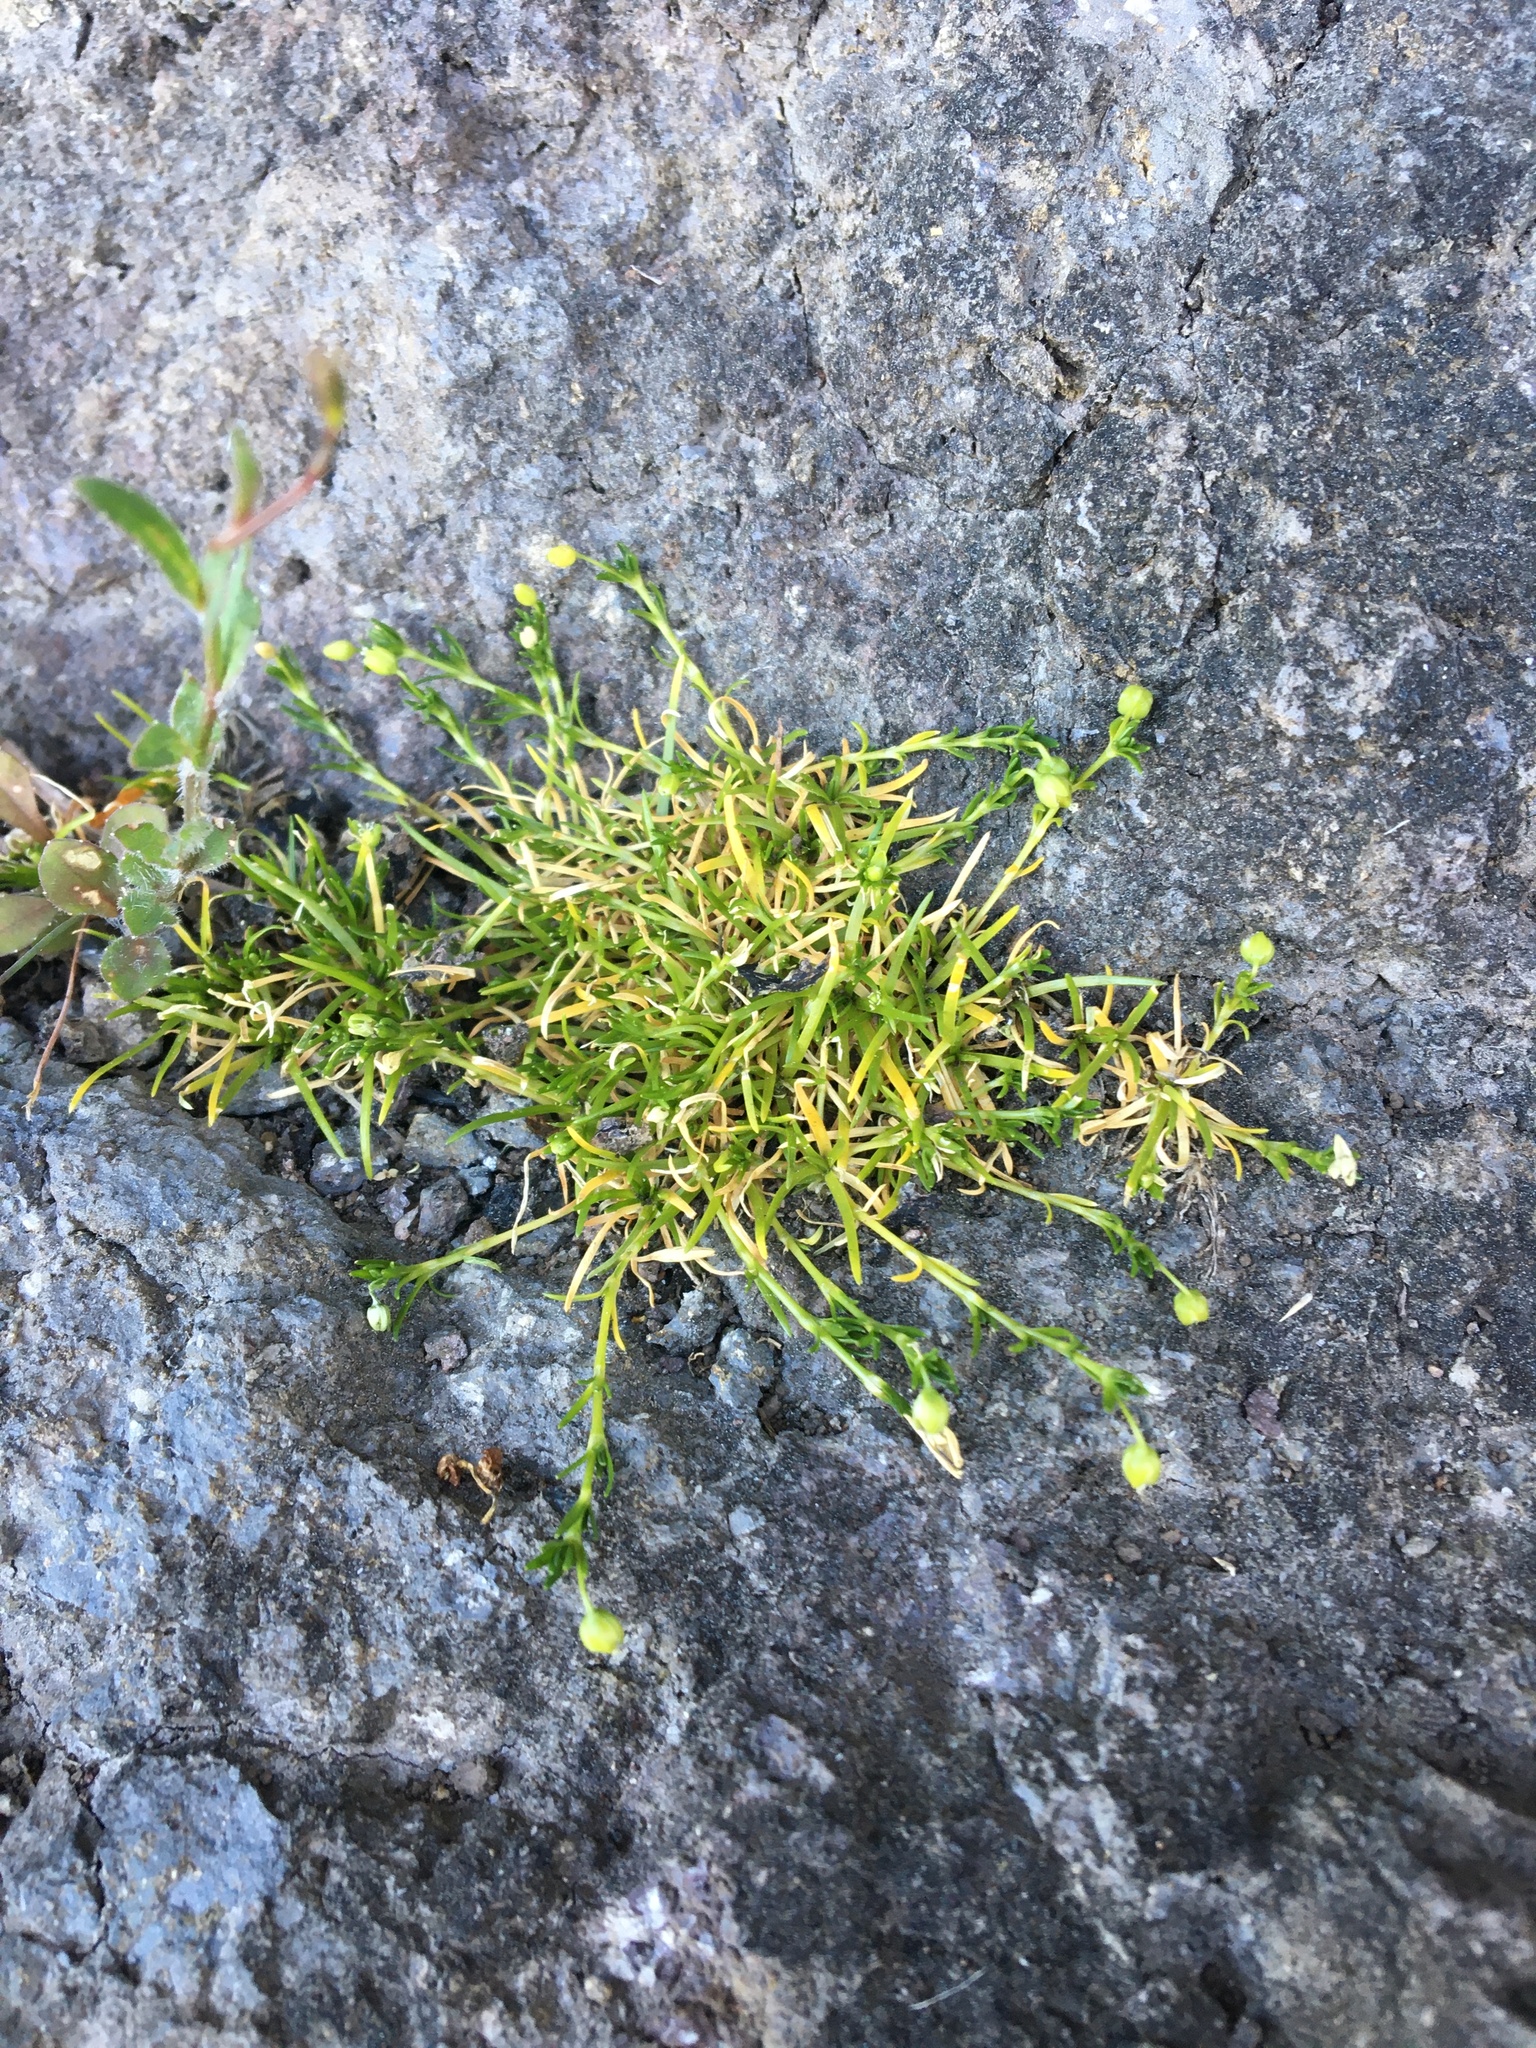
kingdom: Plantae
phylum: Tracheophyta
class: Magnoliopsida
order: Caryophyllales
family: Caryophyllaceae
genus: Sagina
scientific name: Sagina procumbens
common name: Procumbent pearlwort
